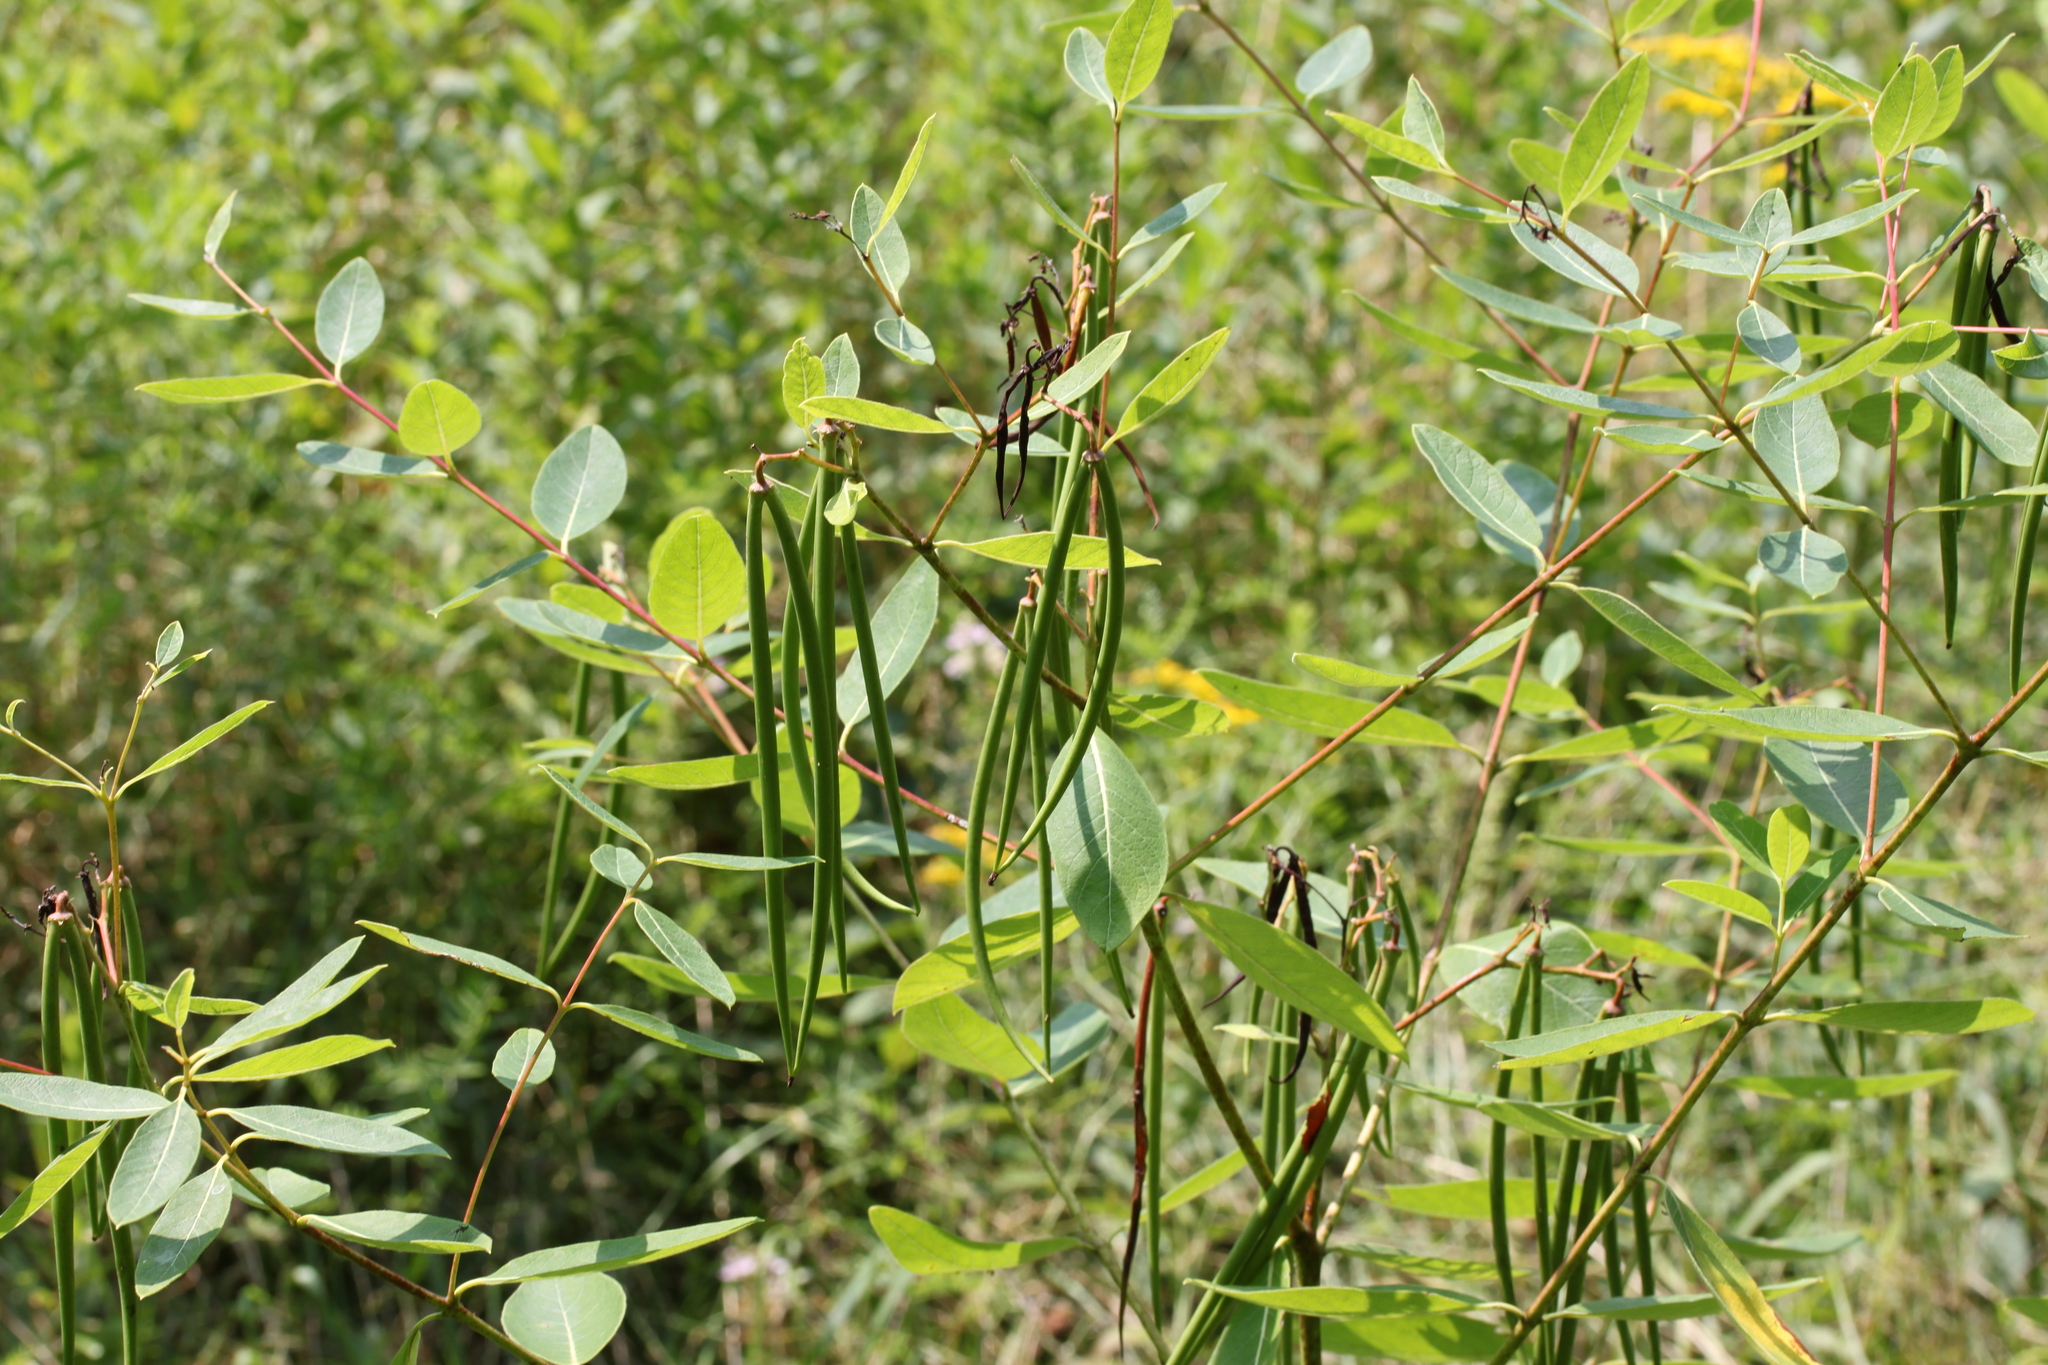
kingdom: Plantae
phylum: Tracheophyta
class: Magnoliopsida
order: Gentianales
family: Apocynaceae
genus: Apocynum
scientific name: Apocynum cannabinum
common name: Hemp dogbane
